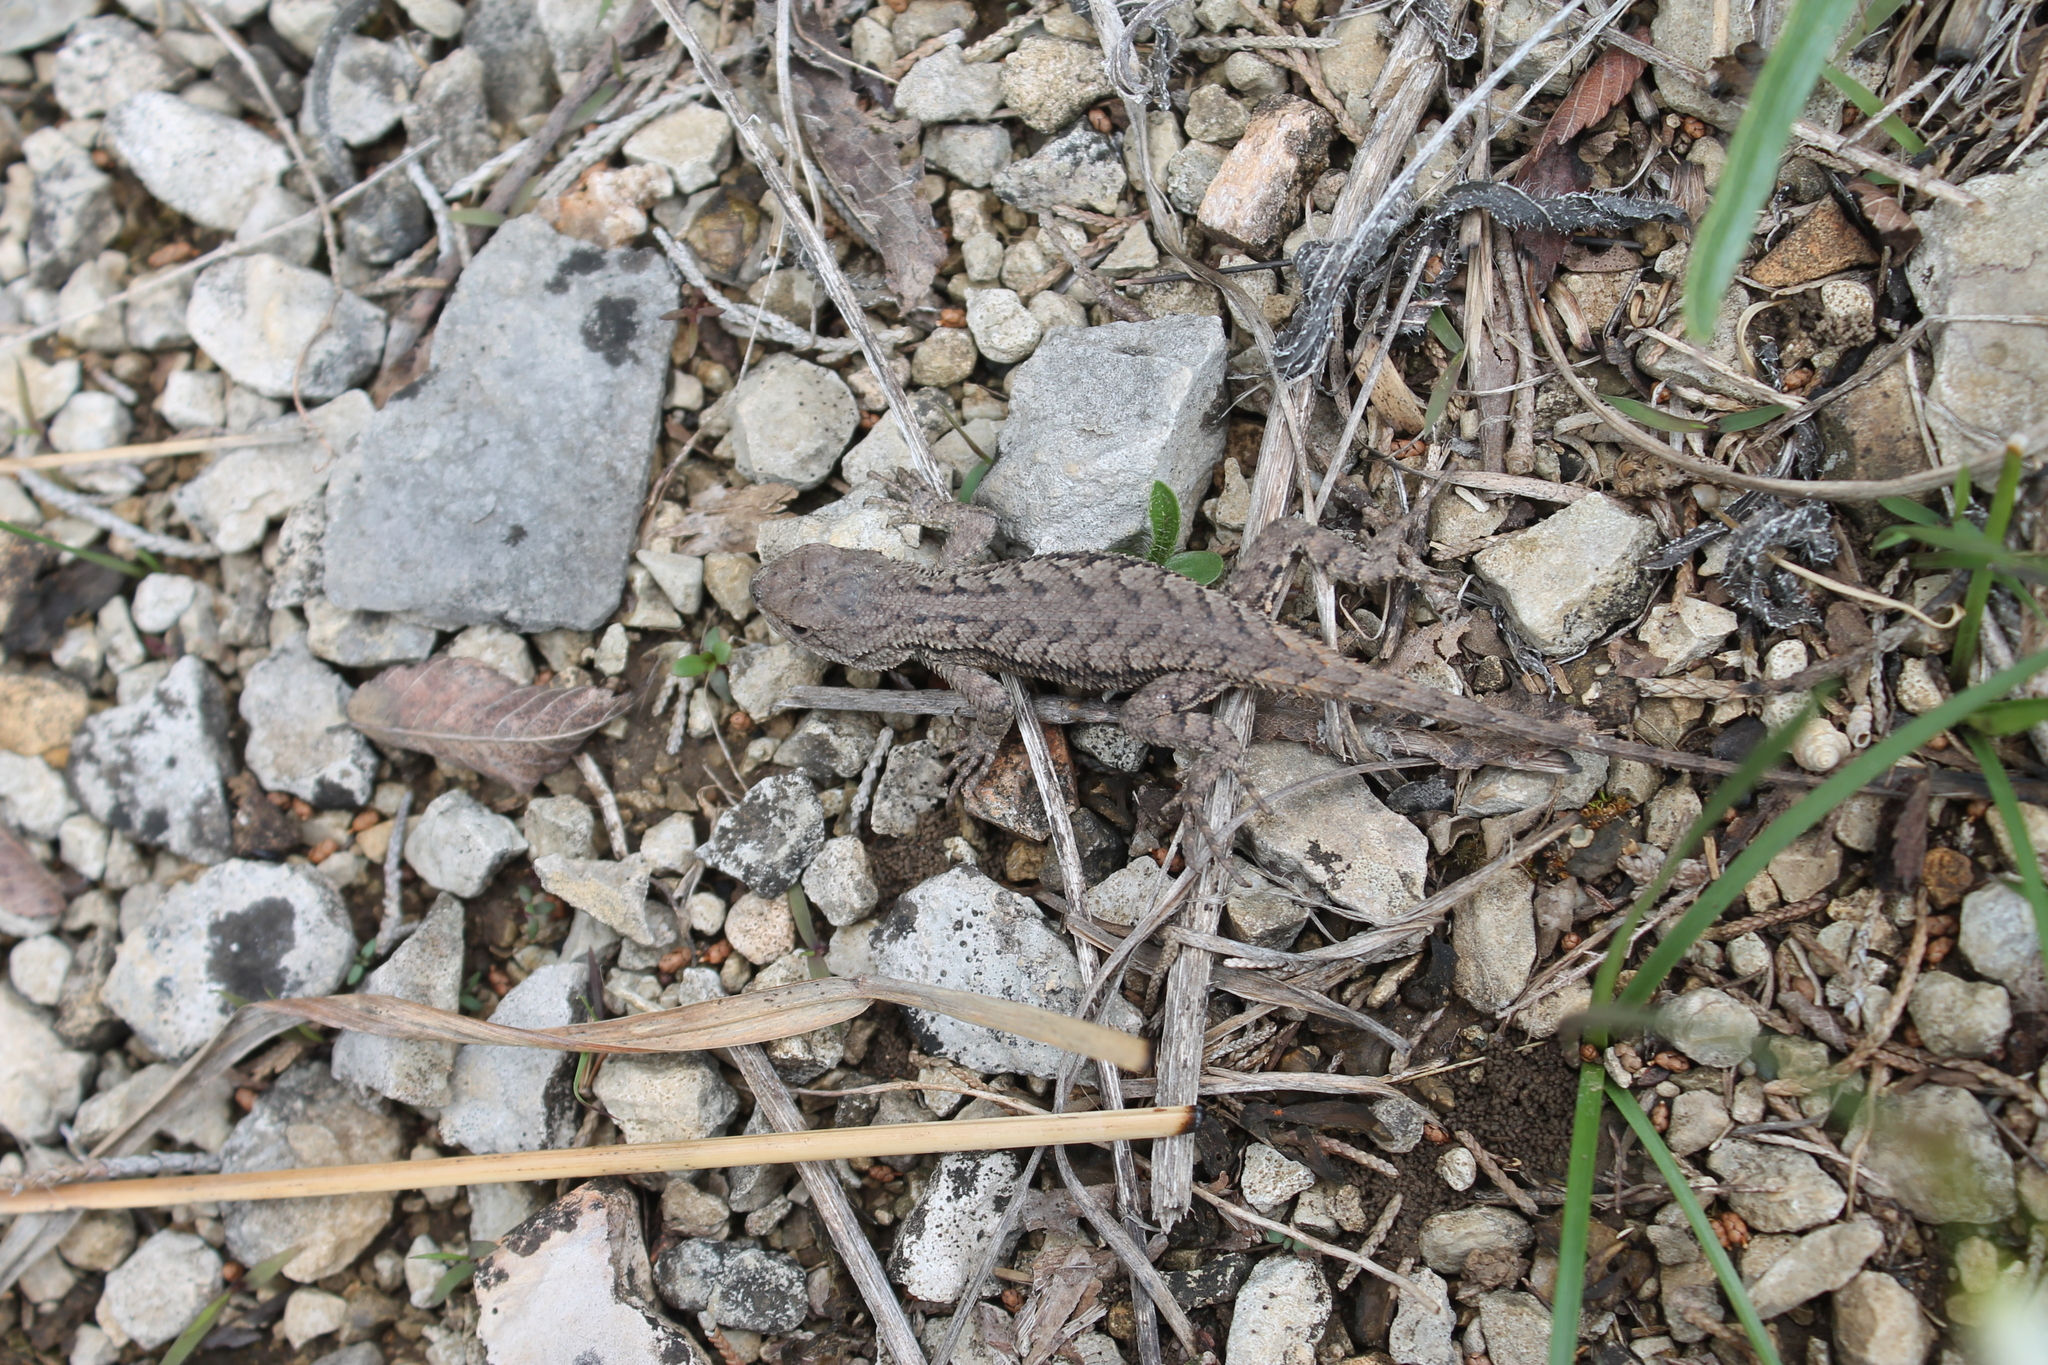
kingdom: Animalia
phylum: Chordata
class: Squamata
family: Phrynosomatidae
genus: Sceloporus
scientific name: Sceloporus undulatus
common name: Eastern fence lizard
